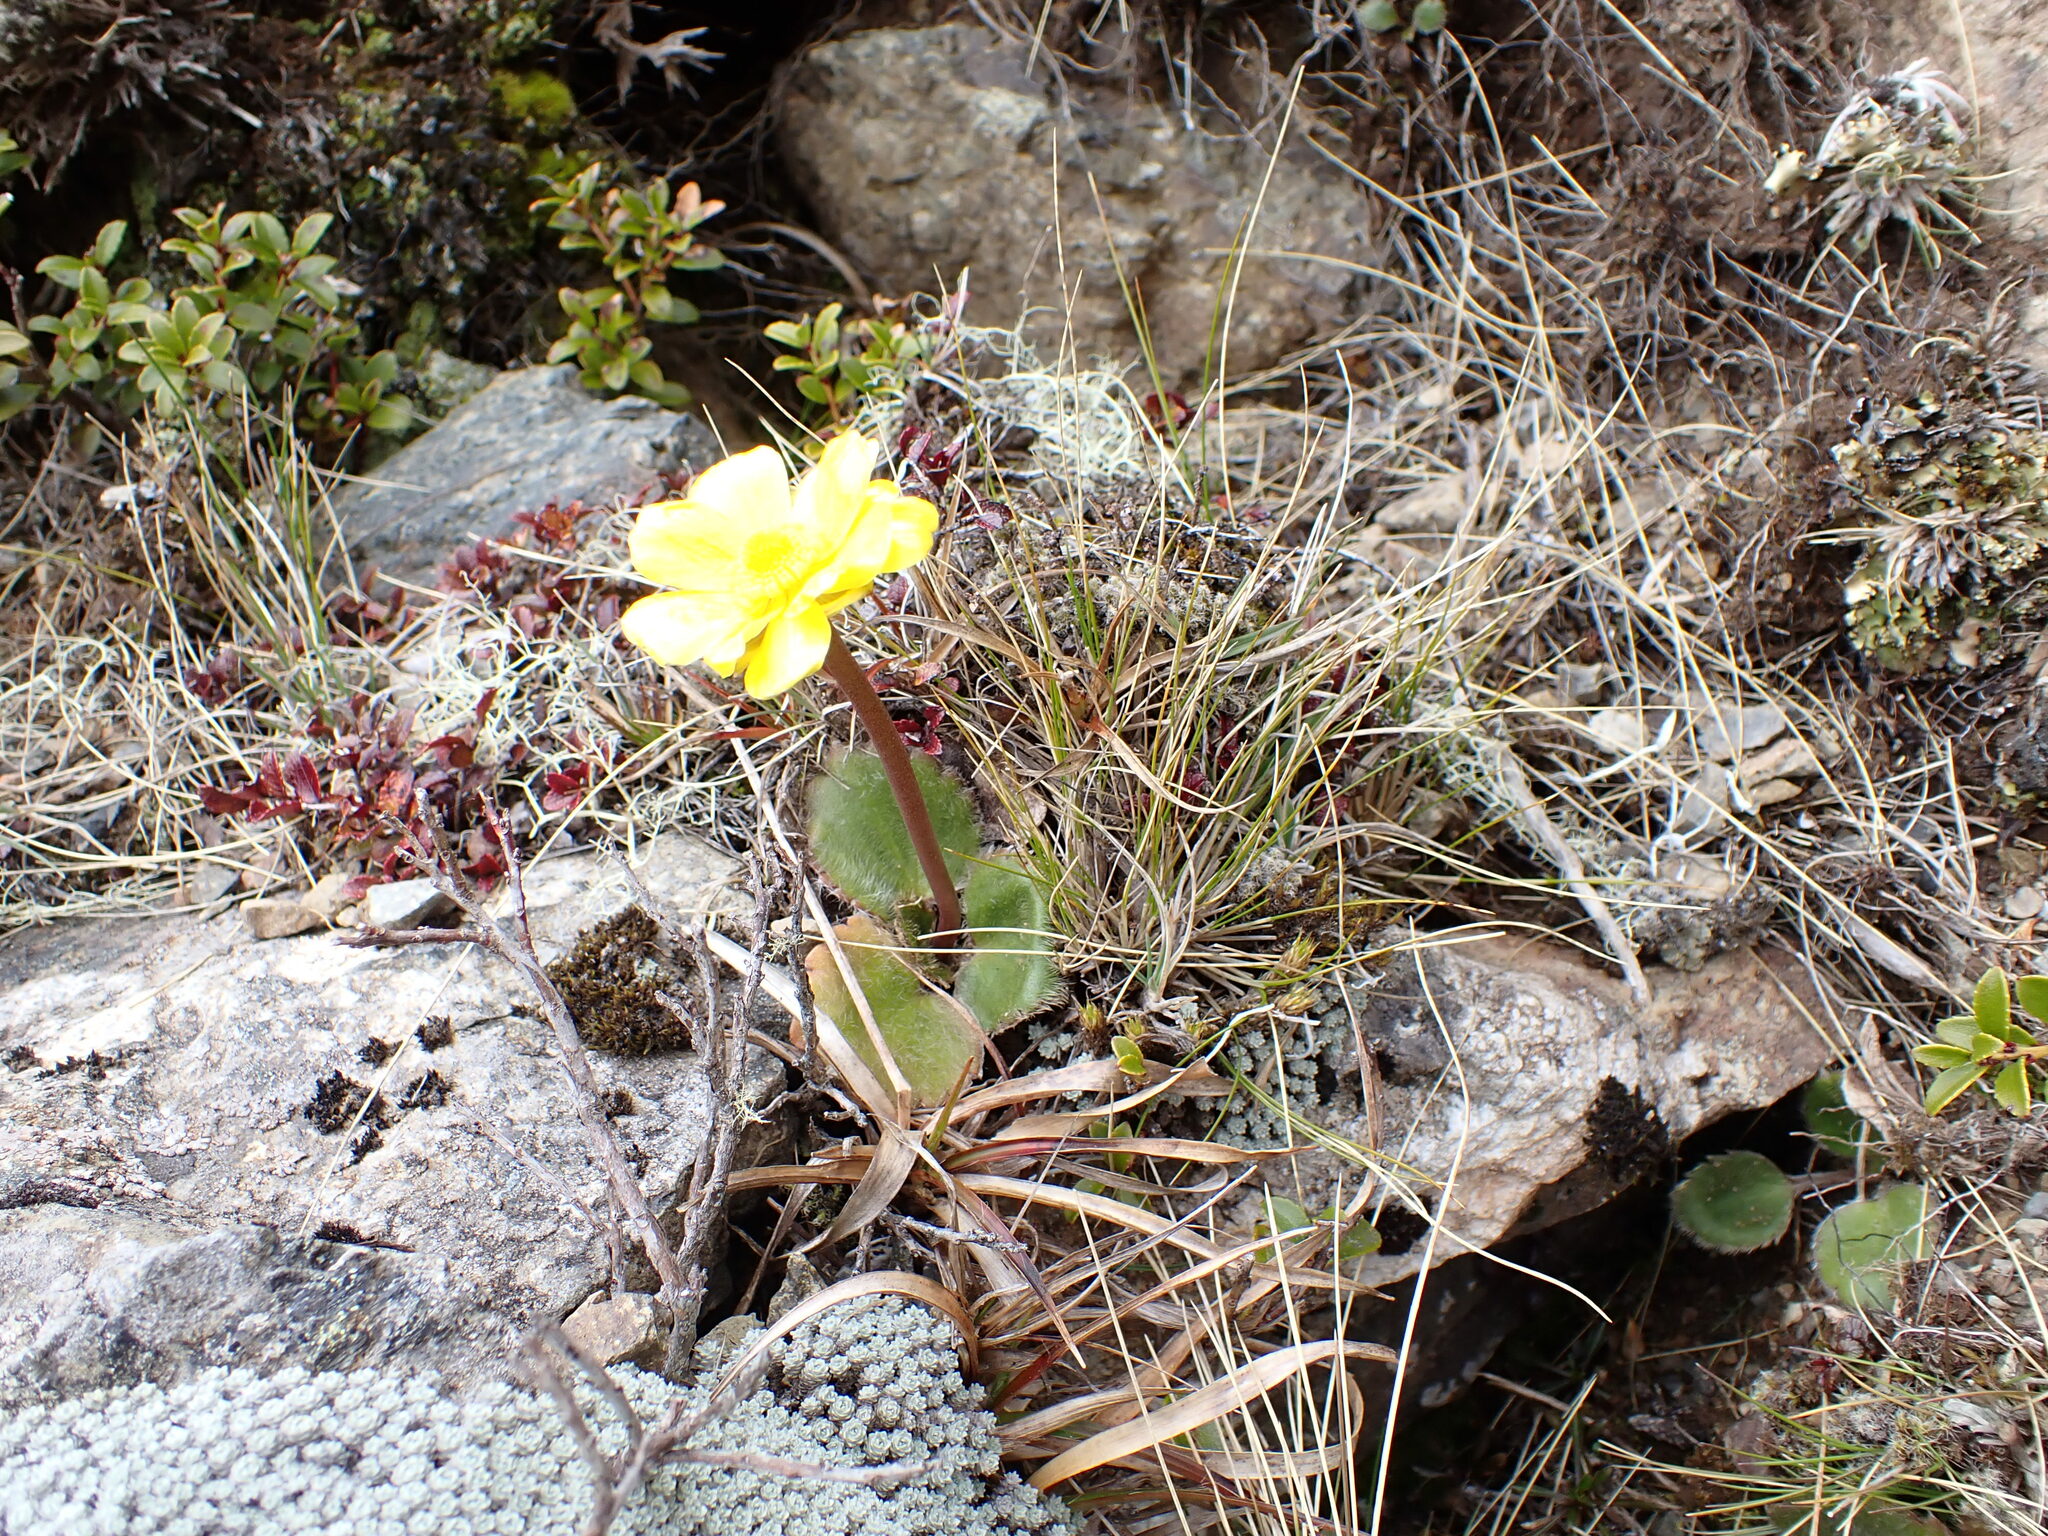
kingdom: Plantae
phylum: Tracheophyta
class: Magnoliopsida
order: Ranunculales
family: Ranunculaceae
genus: Ranunculus
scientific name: Ranunculus insignis
